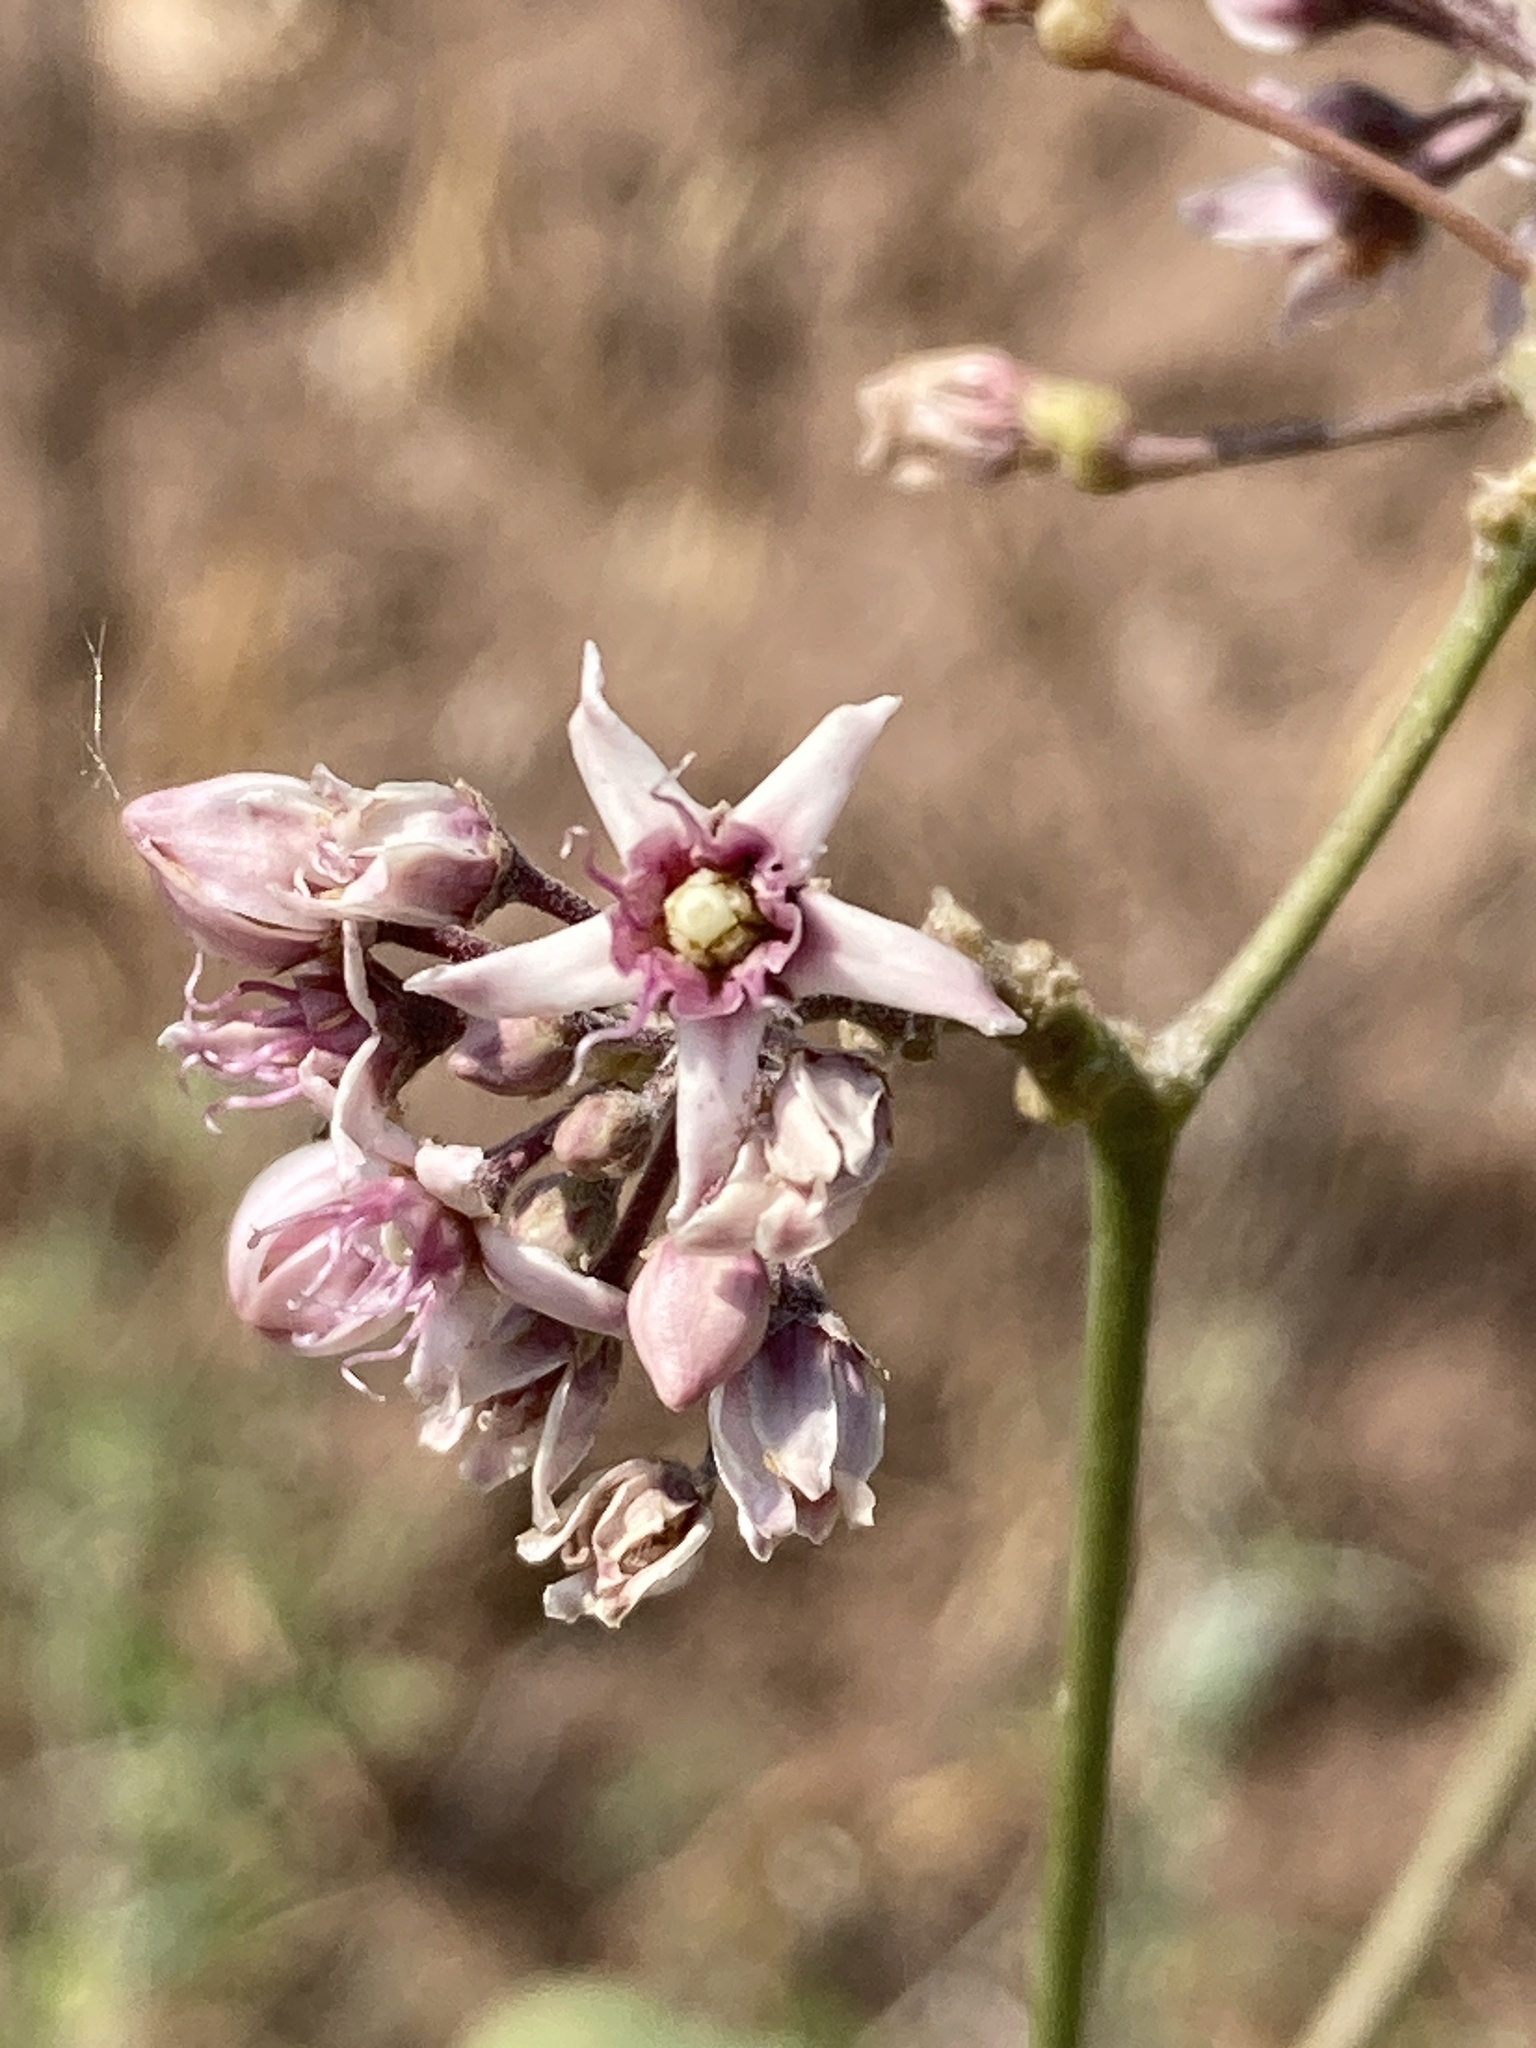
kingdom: Plantae
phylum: Tracheophyta
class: Magnoliopsida
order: Gentianales
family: Apocynaceae
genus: Cynanchum
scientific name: Cynanchum acutum
